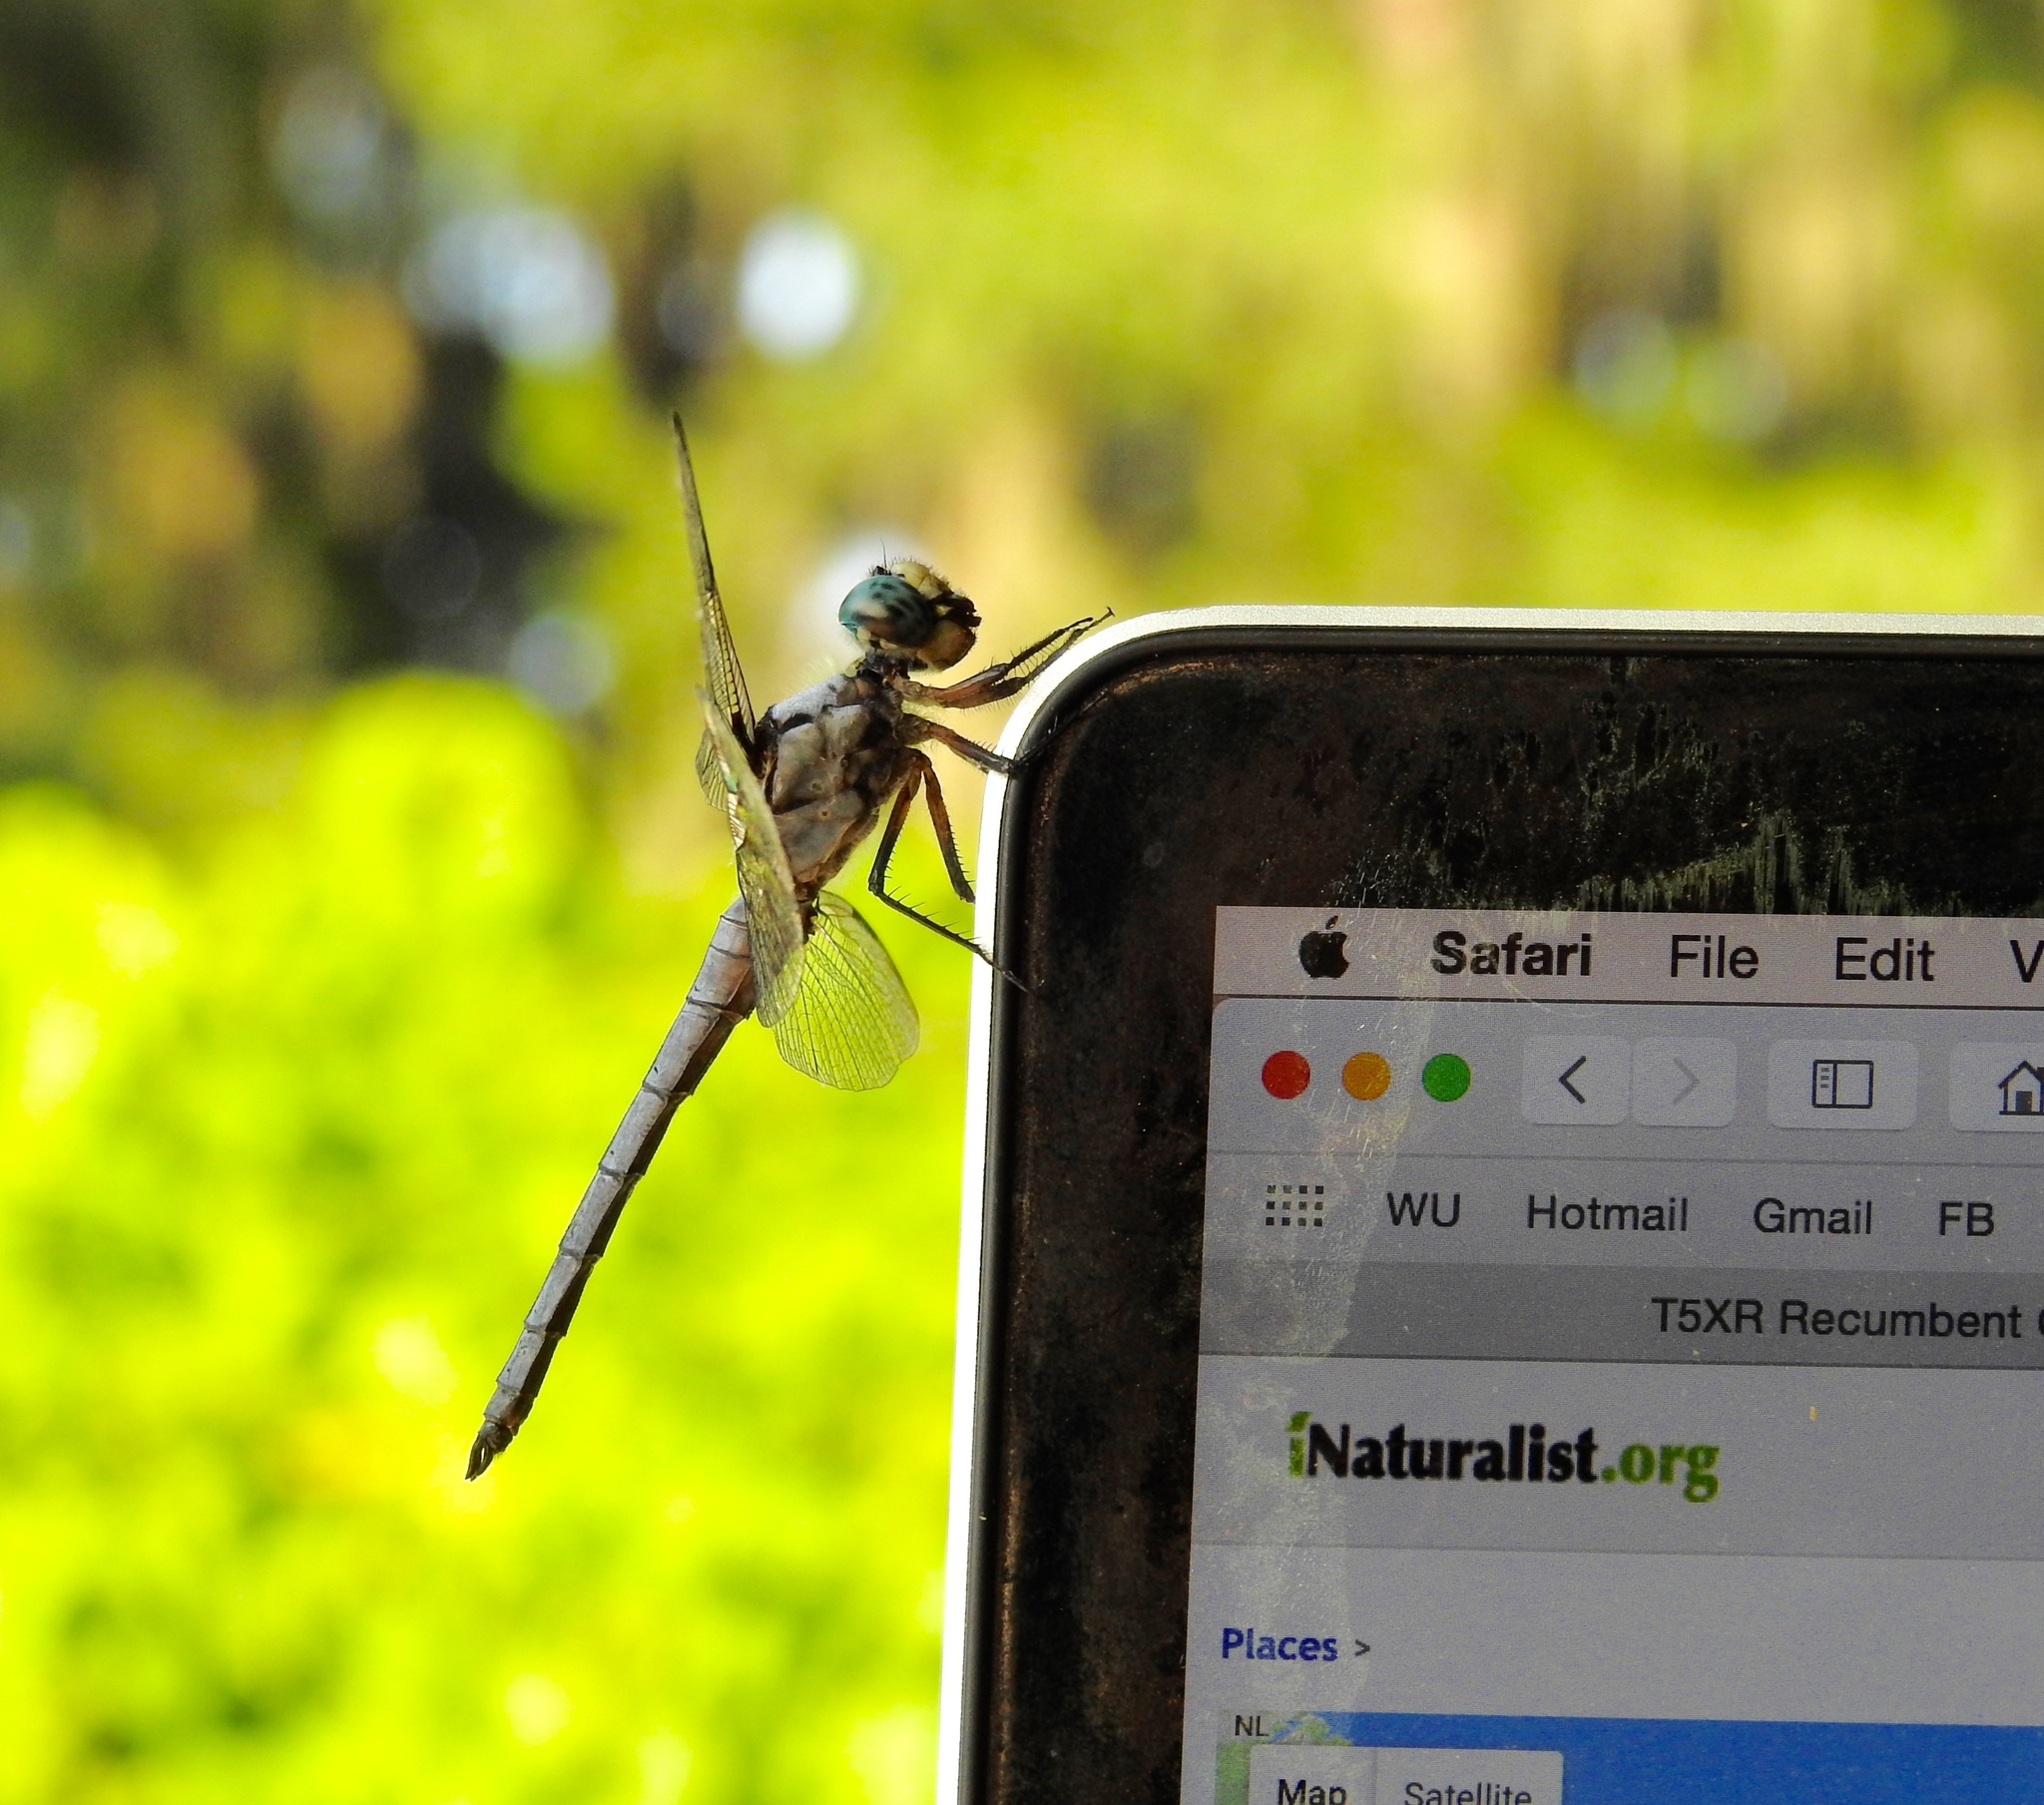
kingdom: Animalia
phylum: Arthropoda
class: Insecta
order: Odonata
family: Libellulidae
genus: Libellula
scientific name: Libellula vibrans
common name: Great blue skimmer
